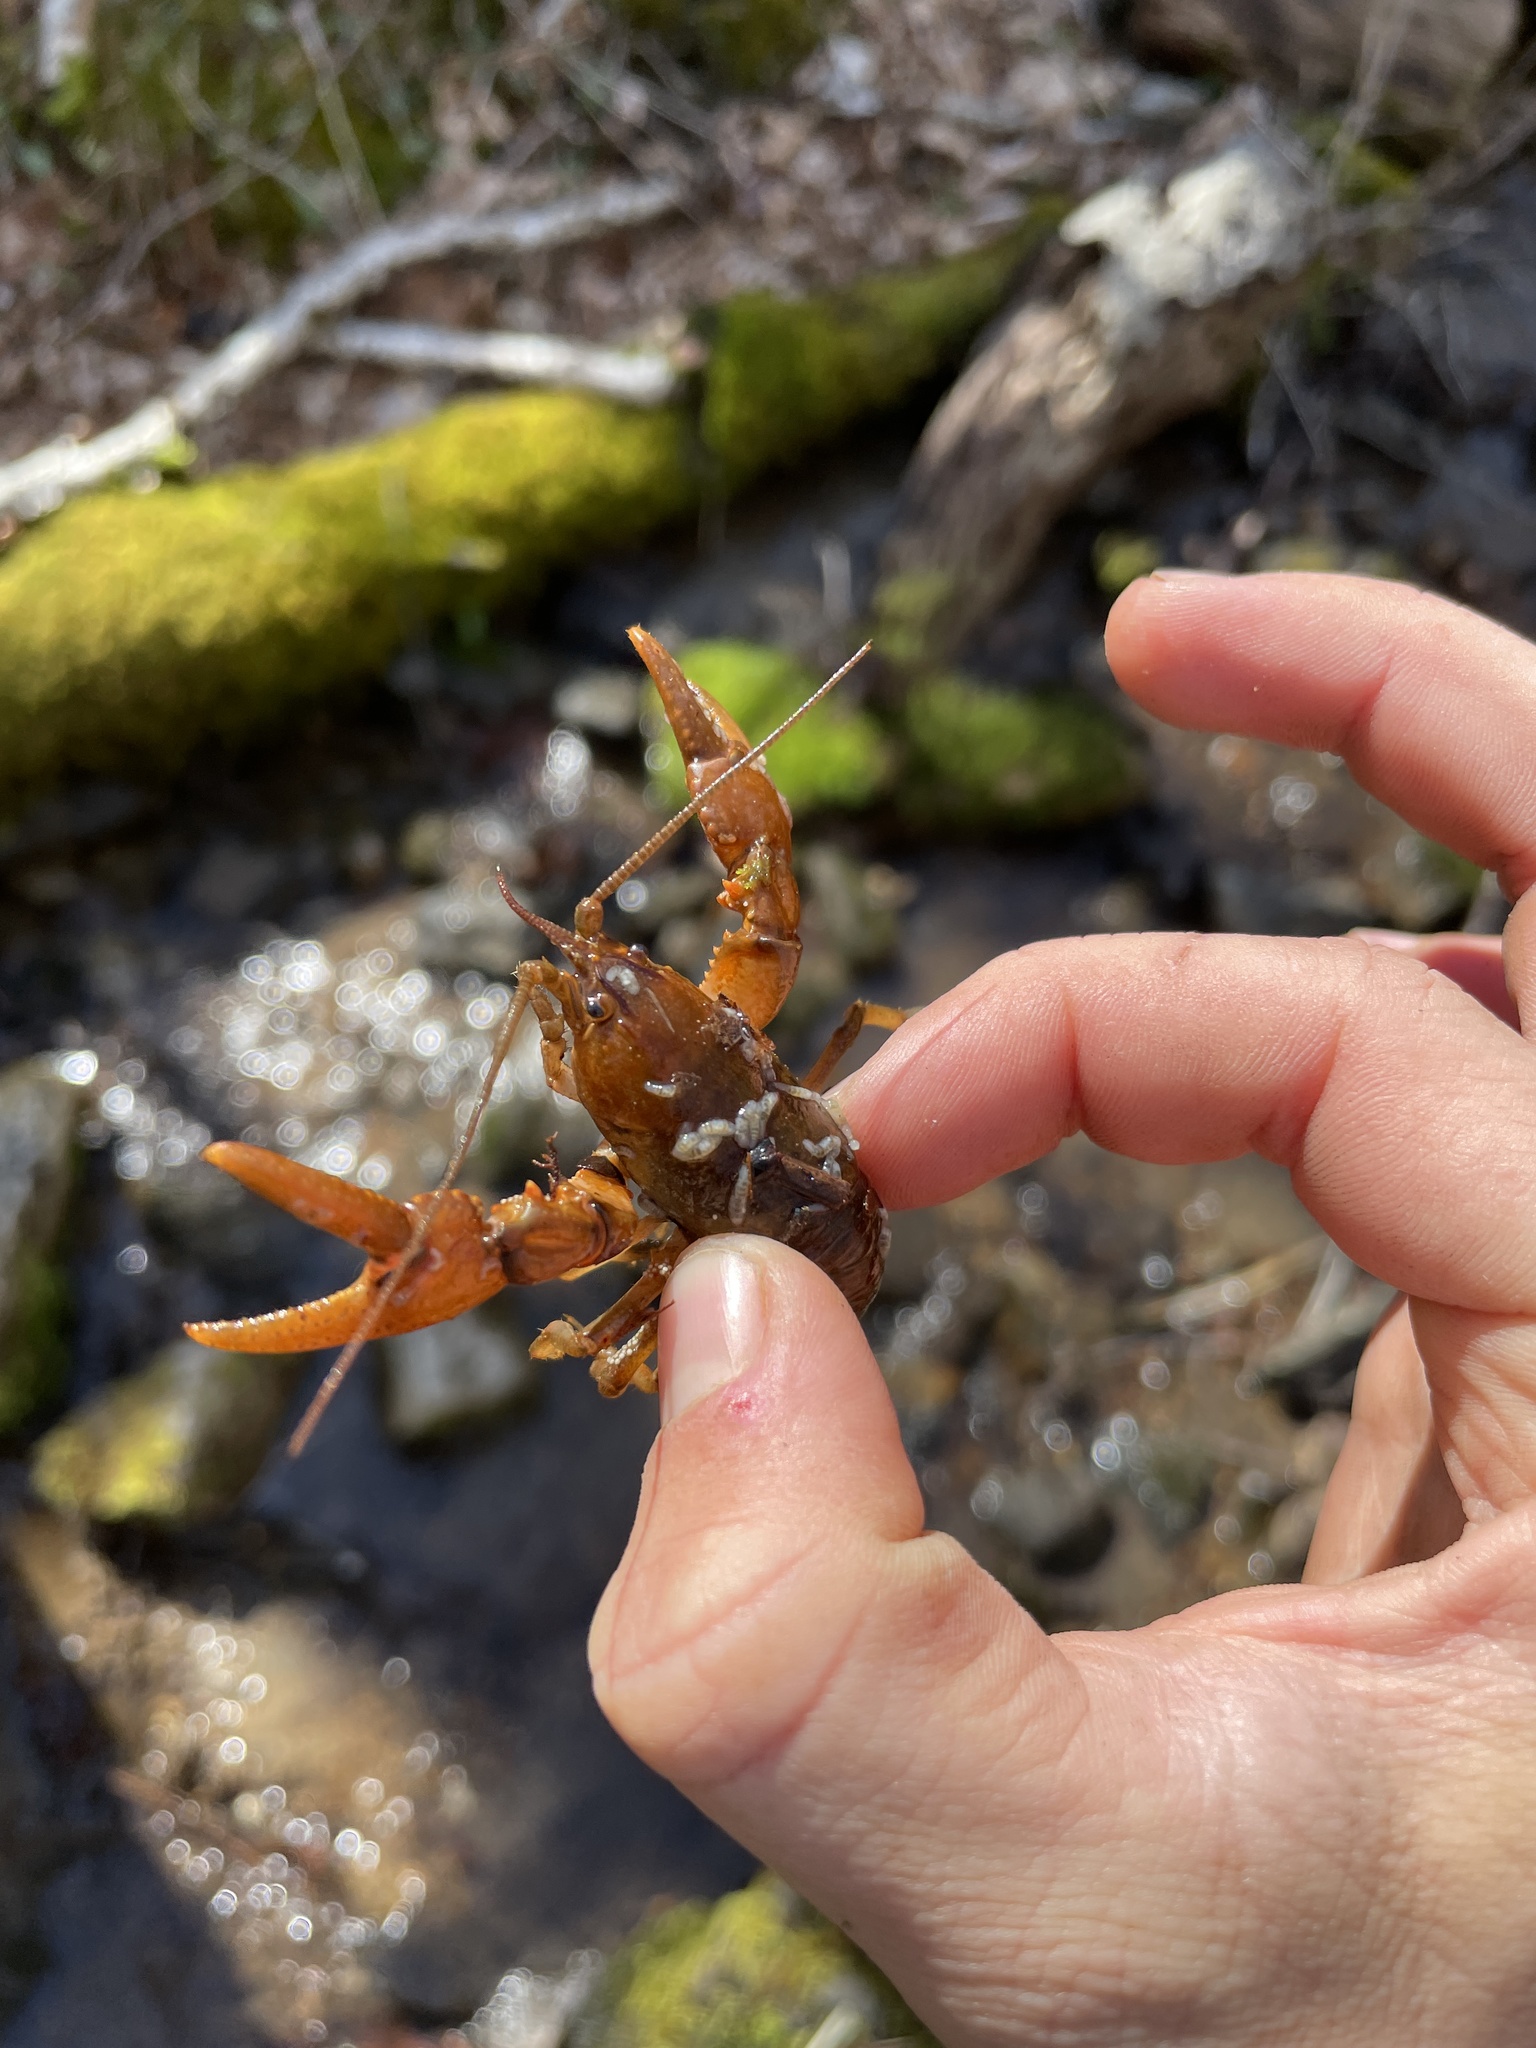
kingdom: Animalia
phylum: Arthropoda
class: Malacostraca
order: Decapoda
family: Cambaridae
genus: Cambarus
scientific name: Cambarus bartonii
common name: Appalachian brook crayfish
